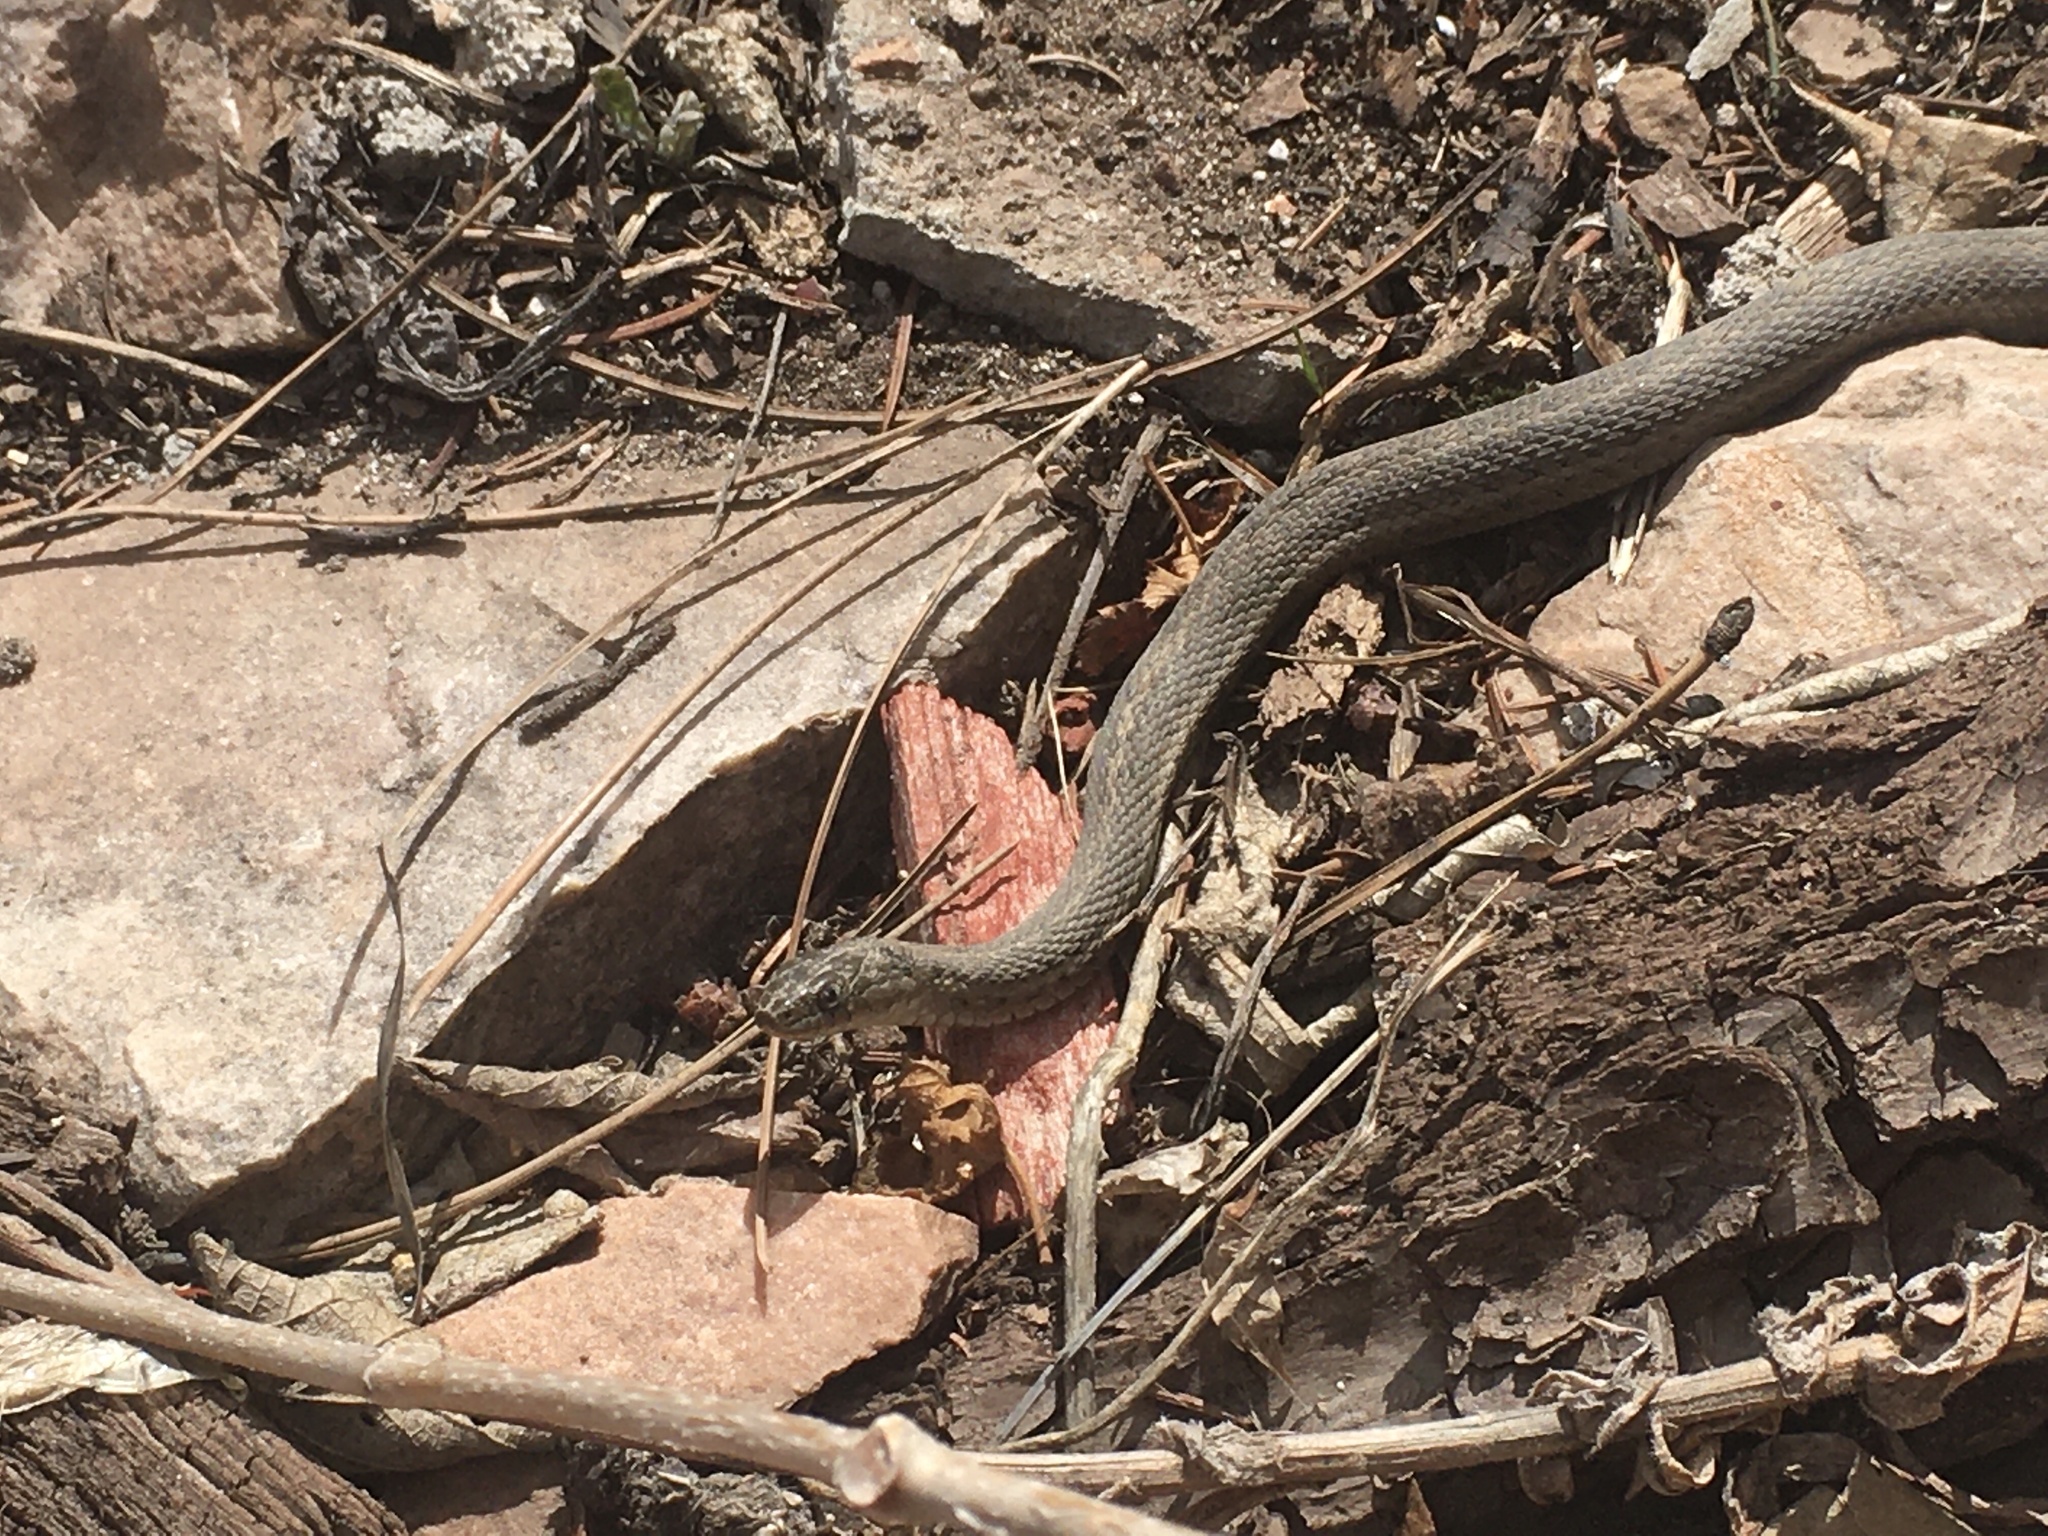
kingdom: Animalia
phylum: Chordata
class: Squamata
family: Colubridae
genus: Thamnophis
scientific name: Thamnophis elegans
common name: Western terrestrial garter snake
